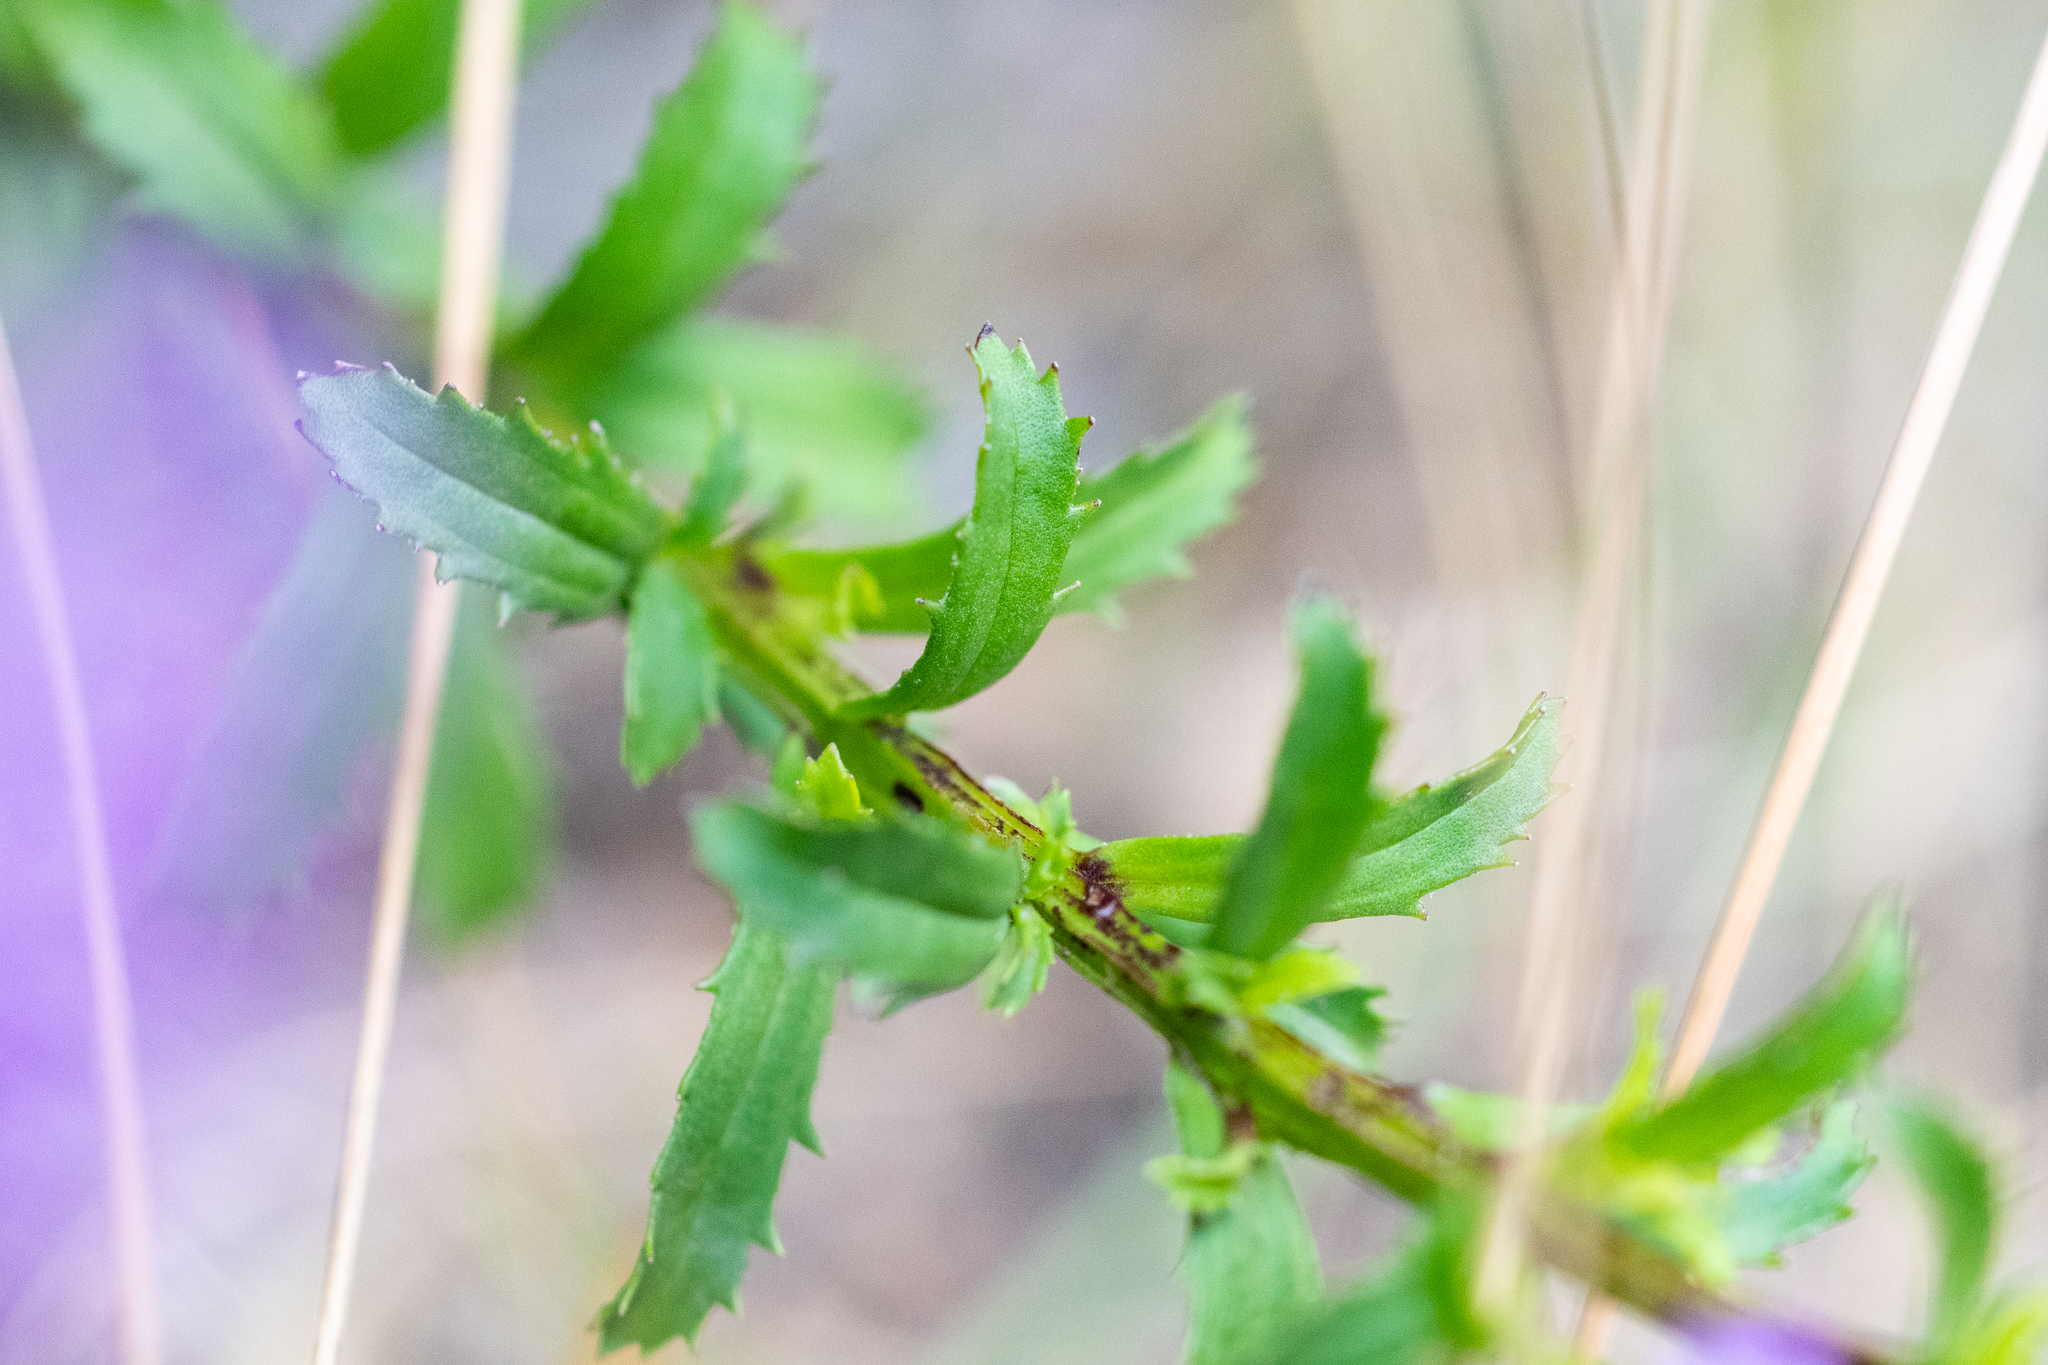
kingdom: Plantae
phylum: Tracheophyta
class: Magnoliopsida
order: Lamiales
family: Scrophulariaceae
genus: Pseudoselago
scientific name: Pseudoselago serrata
